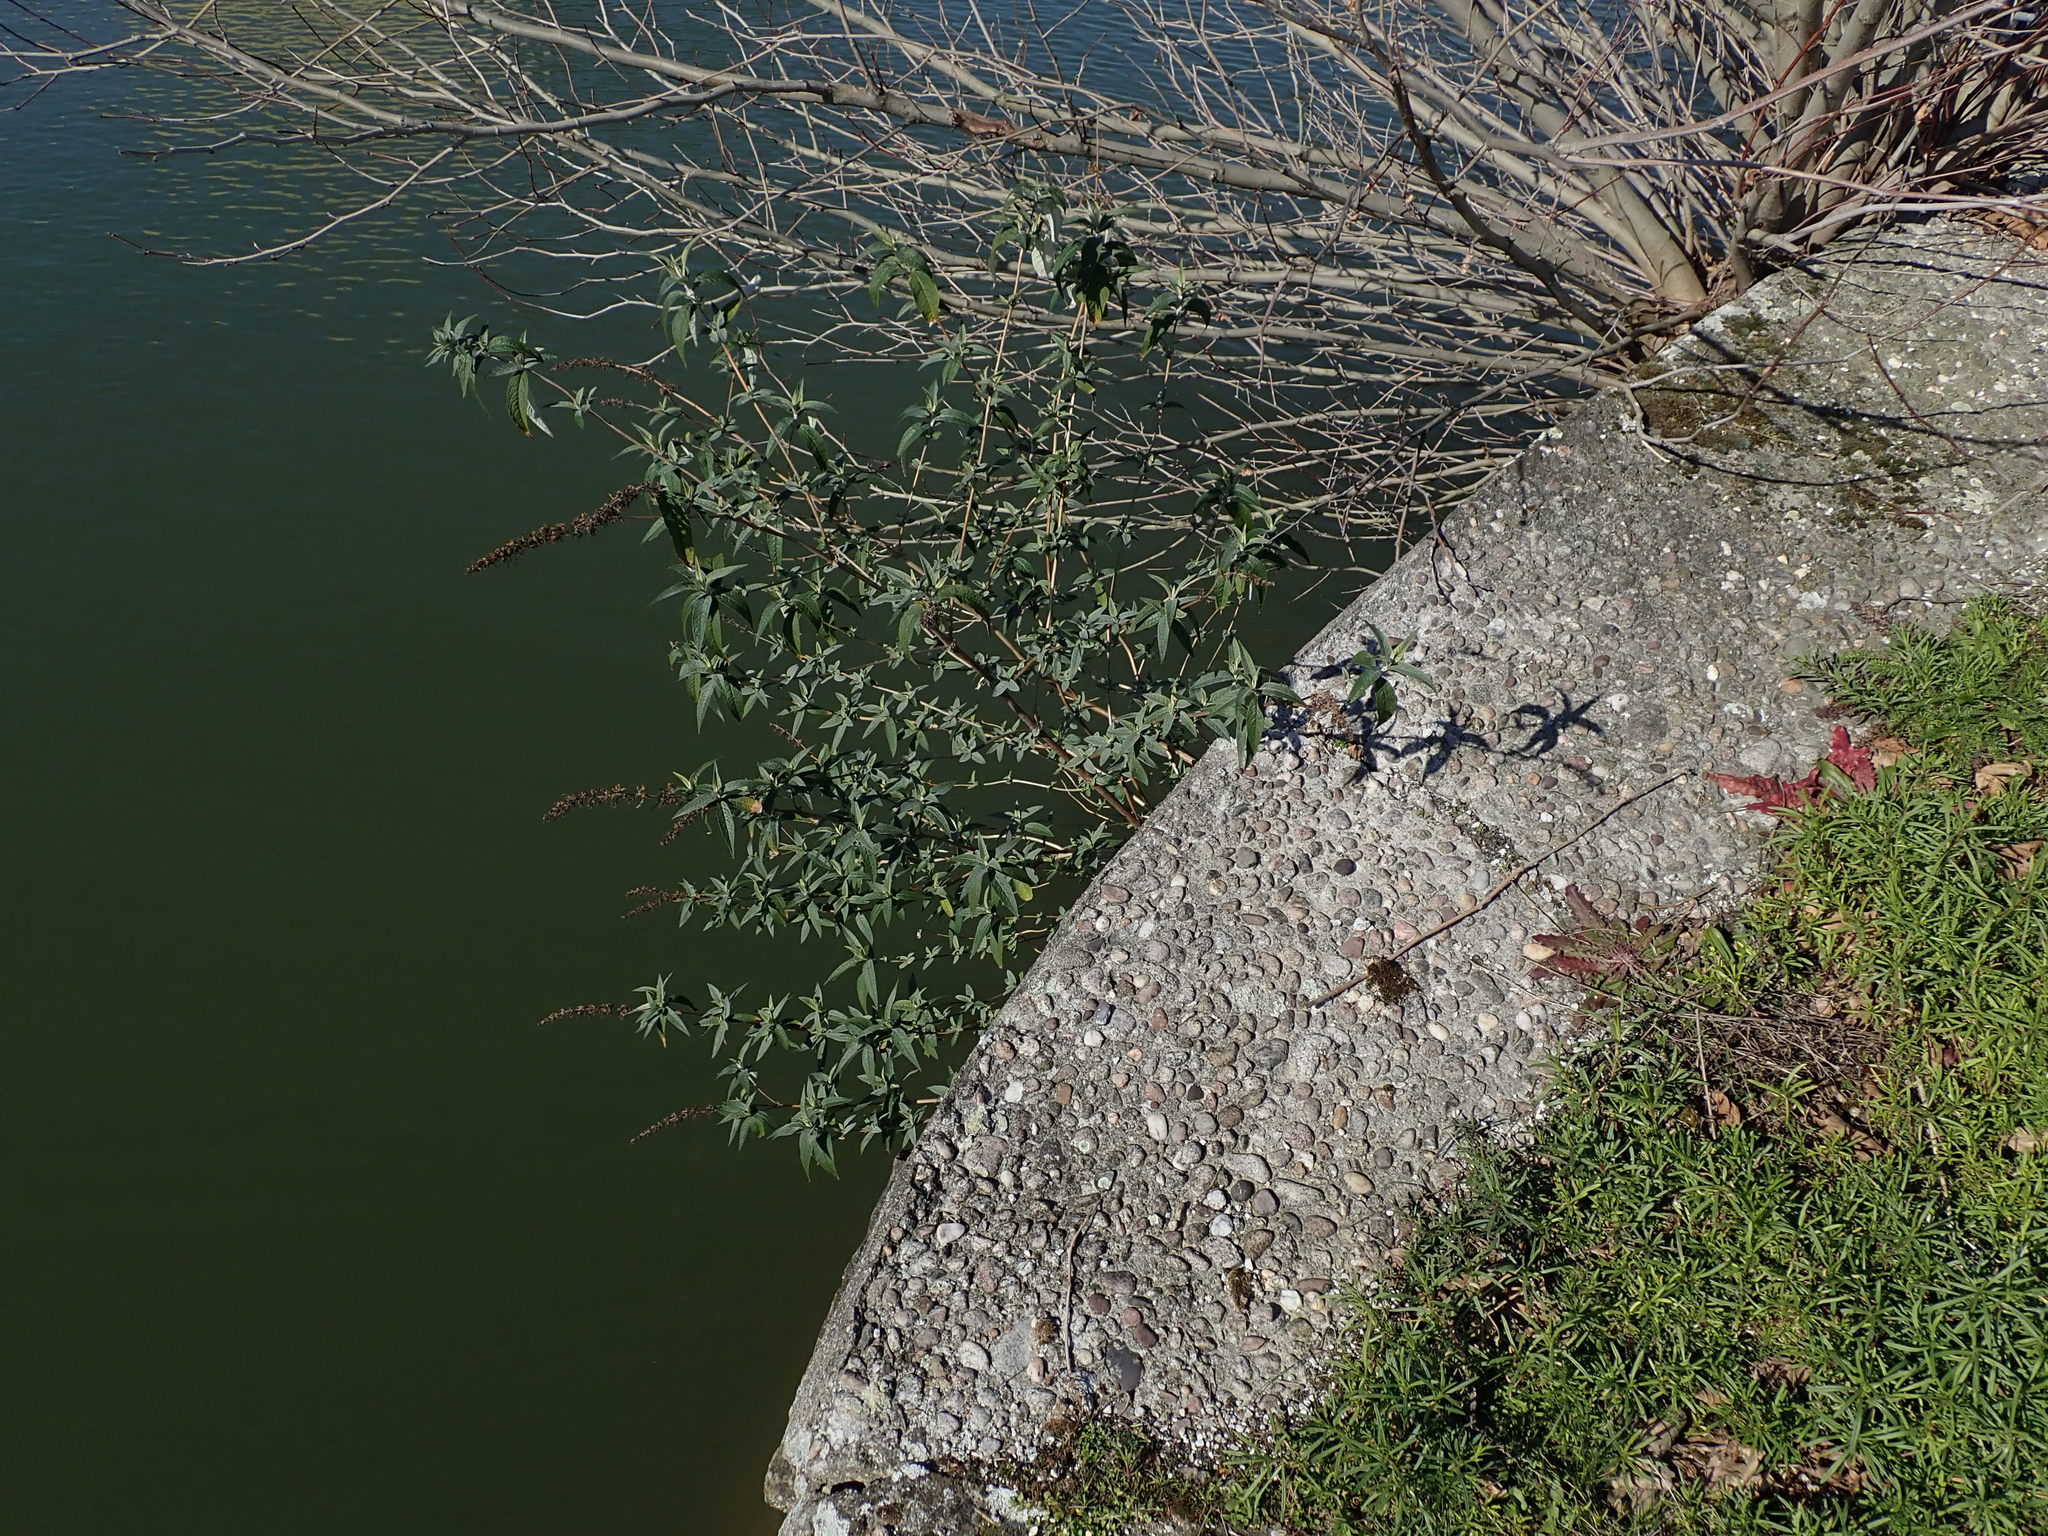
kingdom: Plantae
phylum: Tracheophyta
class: Magnoliopsida
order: Lamiales
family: Scrophulariaceae
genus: Buddleja
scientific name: Buddleja davidii
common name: Butterfly-bush
